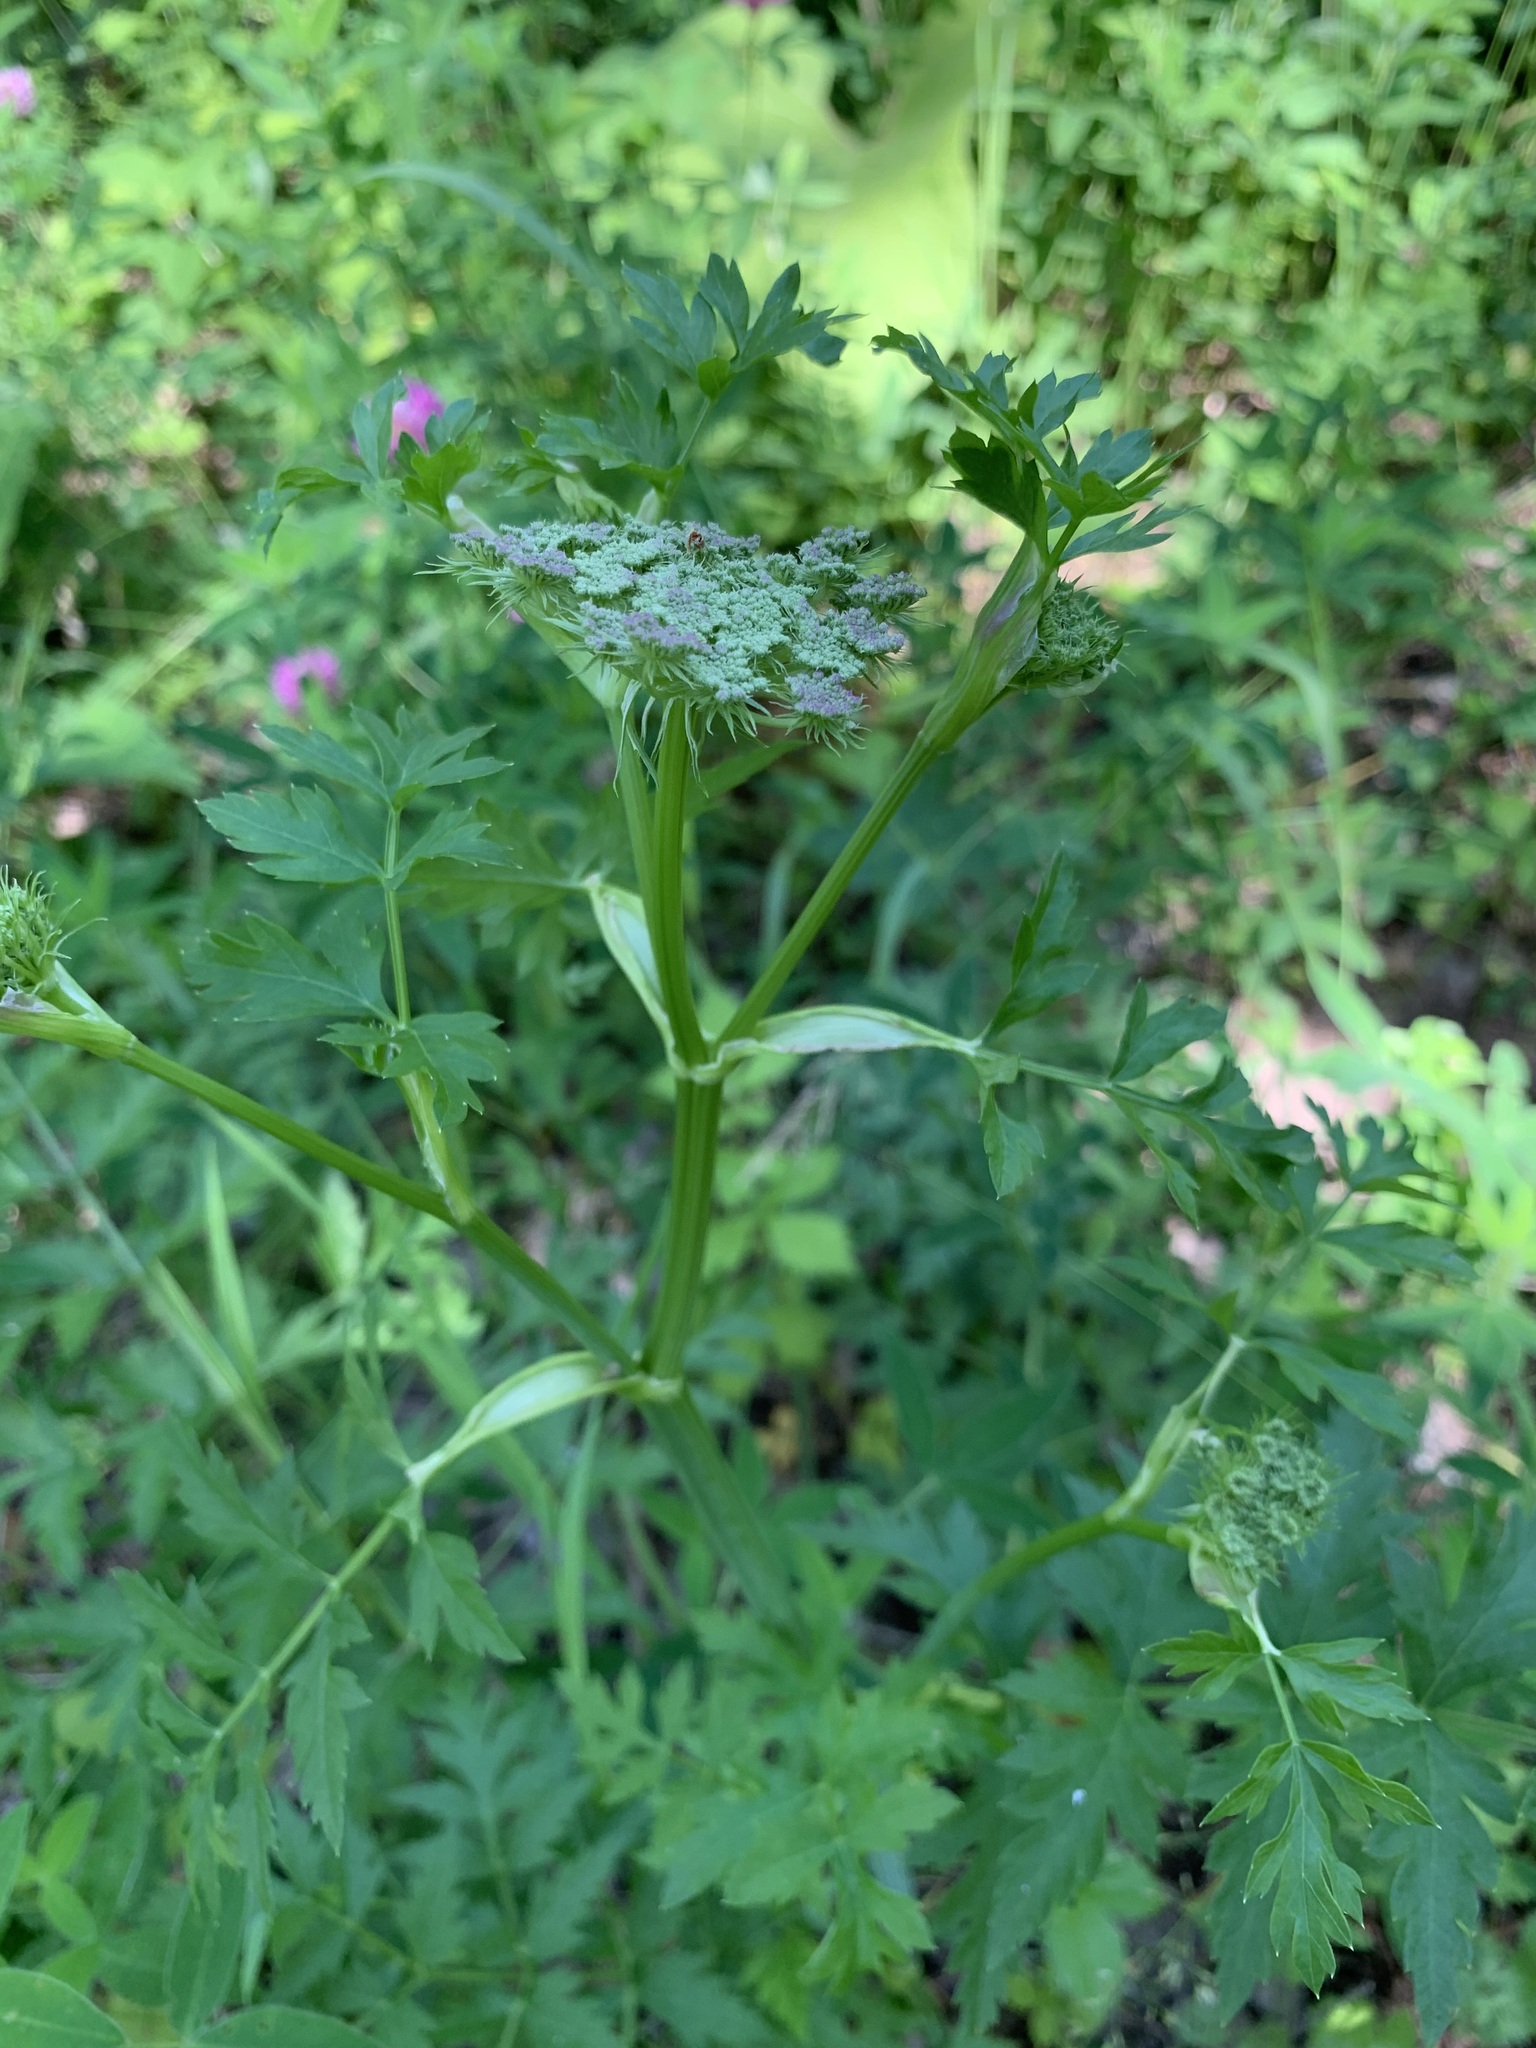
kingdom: Plantae
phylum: Tracheophyta
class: Magnoliopsida
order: Apiales
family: Apiaceae
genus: Seseli
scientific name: Seseli libanotis
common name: Mooncarrot
